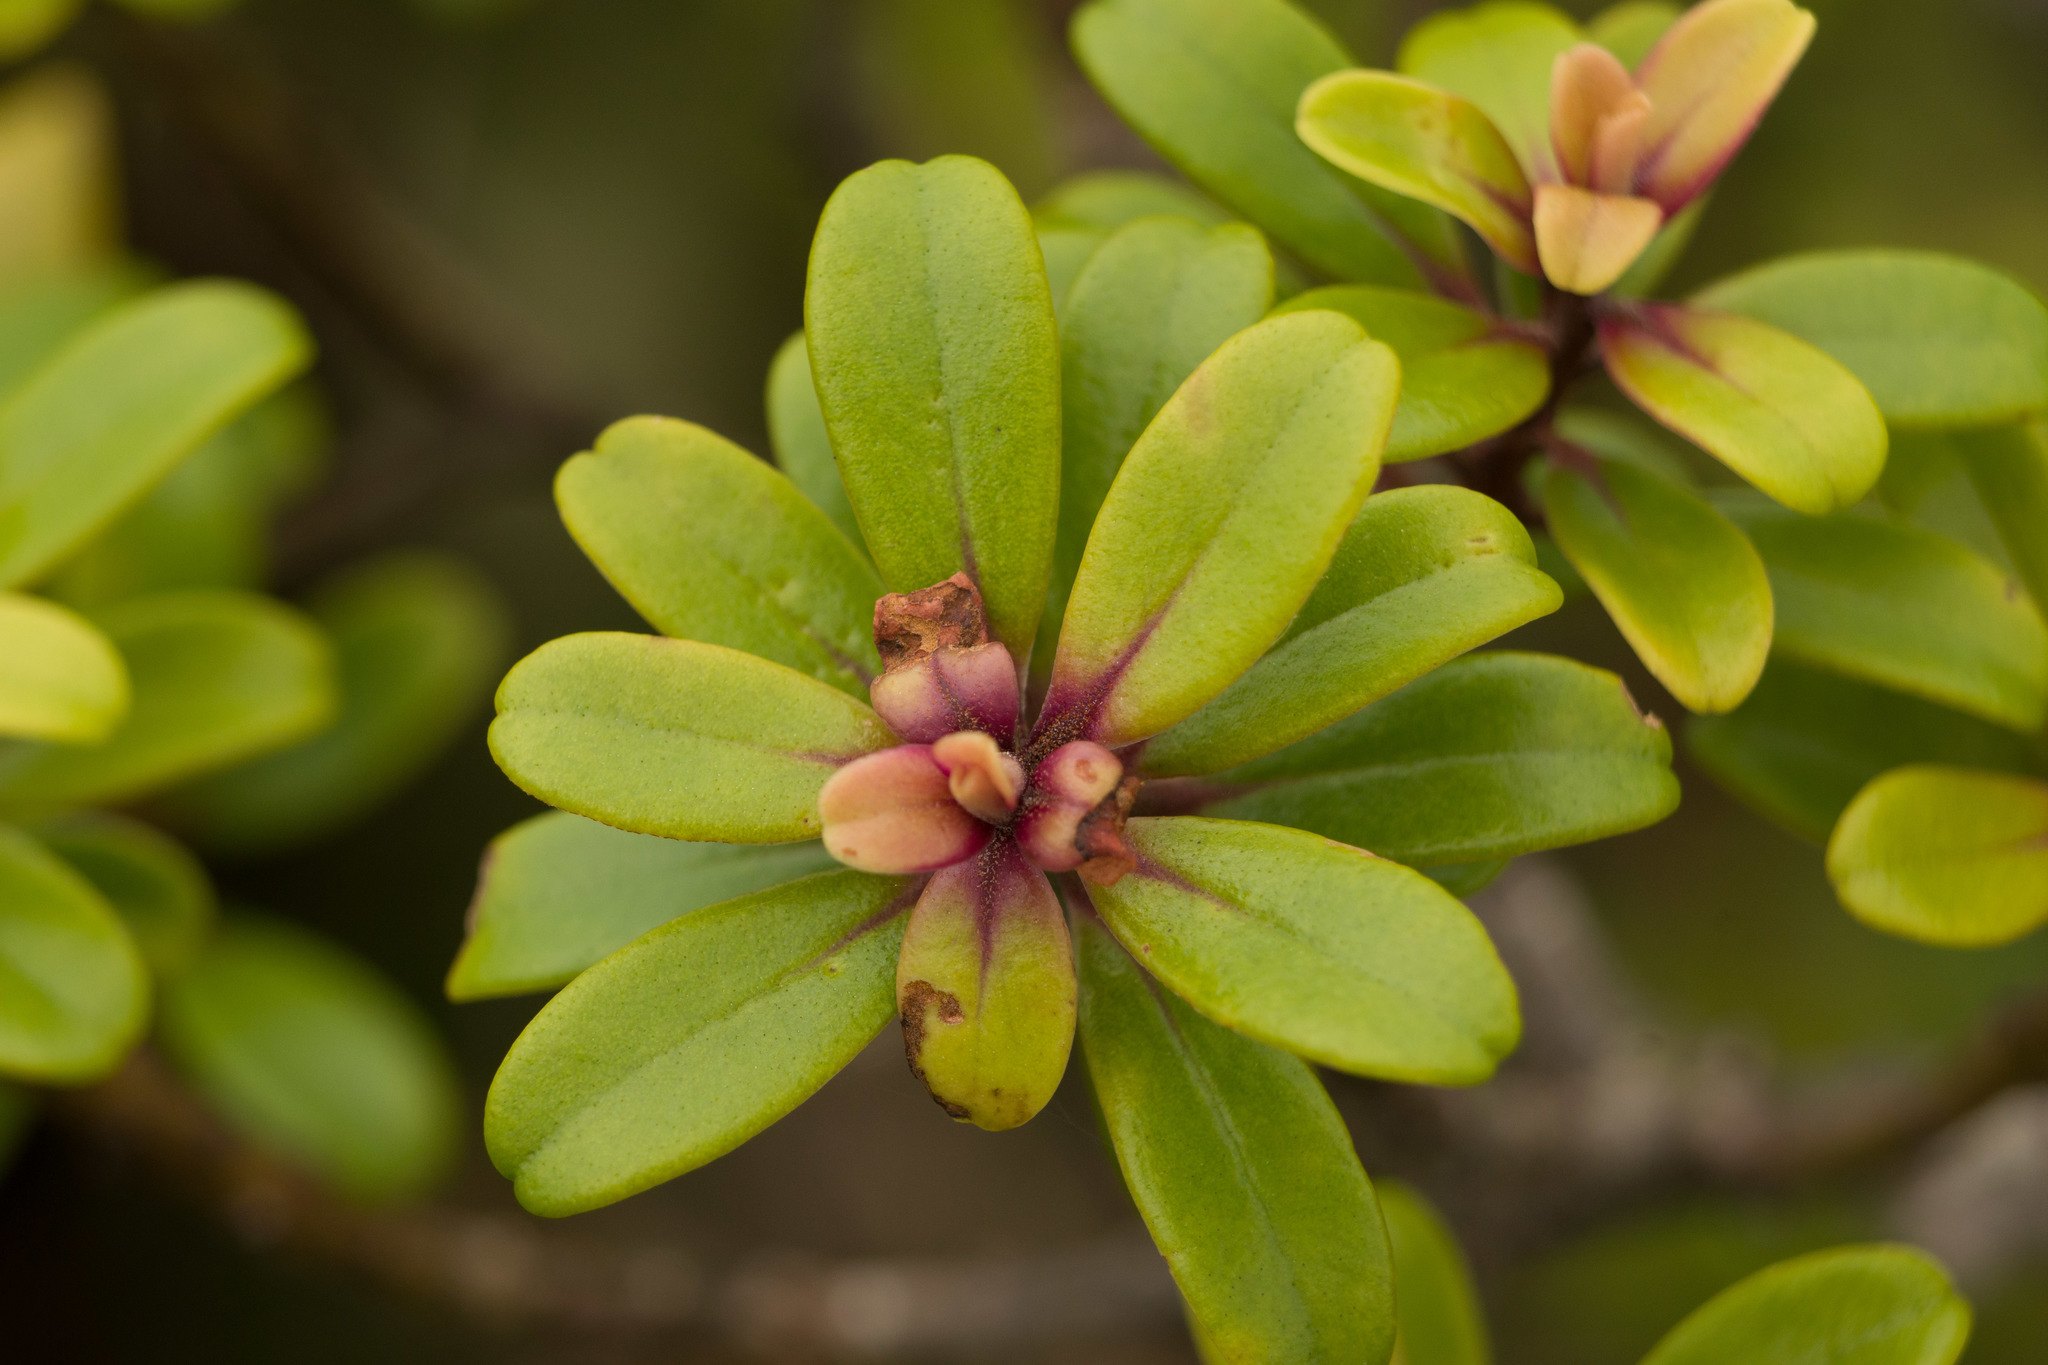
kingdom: Plantae
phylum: Tracheophyta
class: Magnoliopsida
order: Ericales
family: Primulaceae
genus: Myrsine
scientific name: Myrsine sandwicensis
